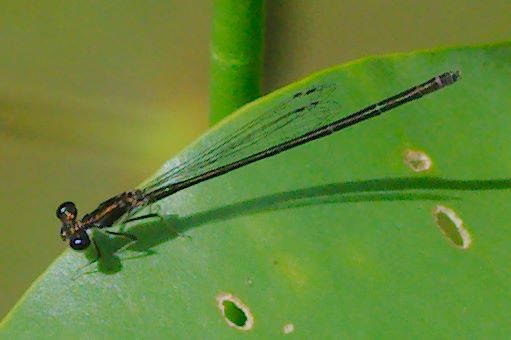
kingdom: Animalia
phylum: Arthropoda
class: Insecta
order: Odonata
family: Coenagrionidae
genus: Ischnura
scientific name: Ischnura posita
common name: Fragile forktail
